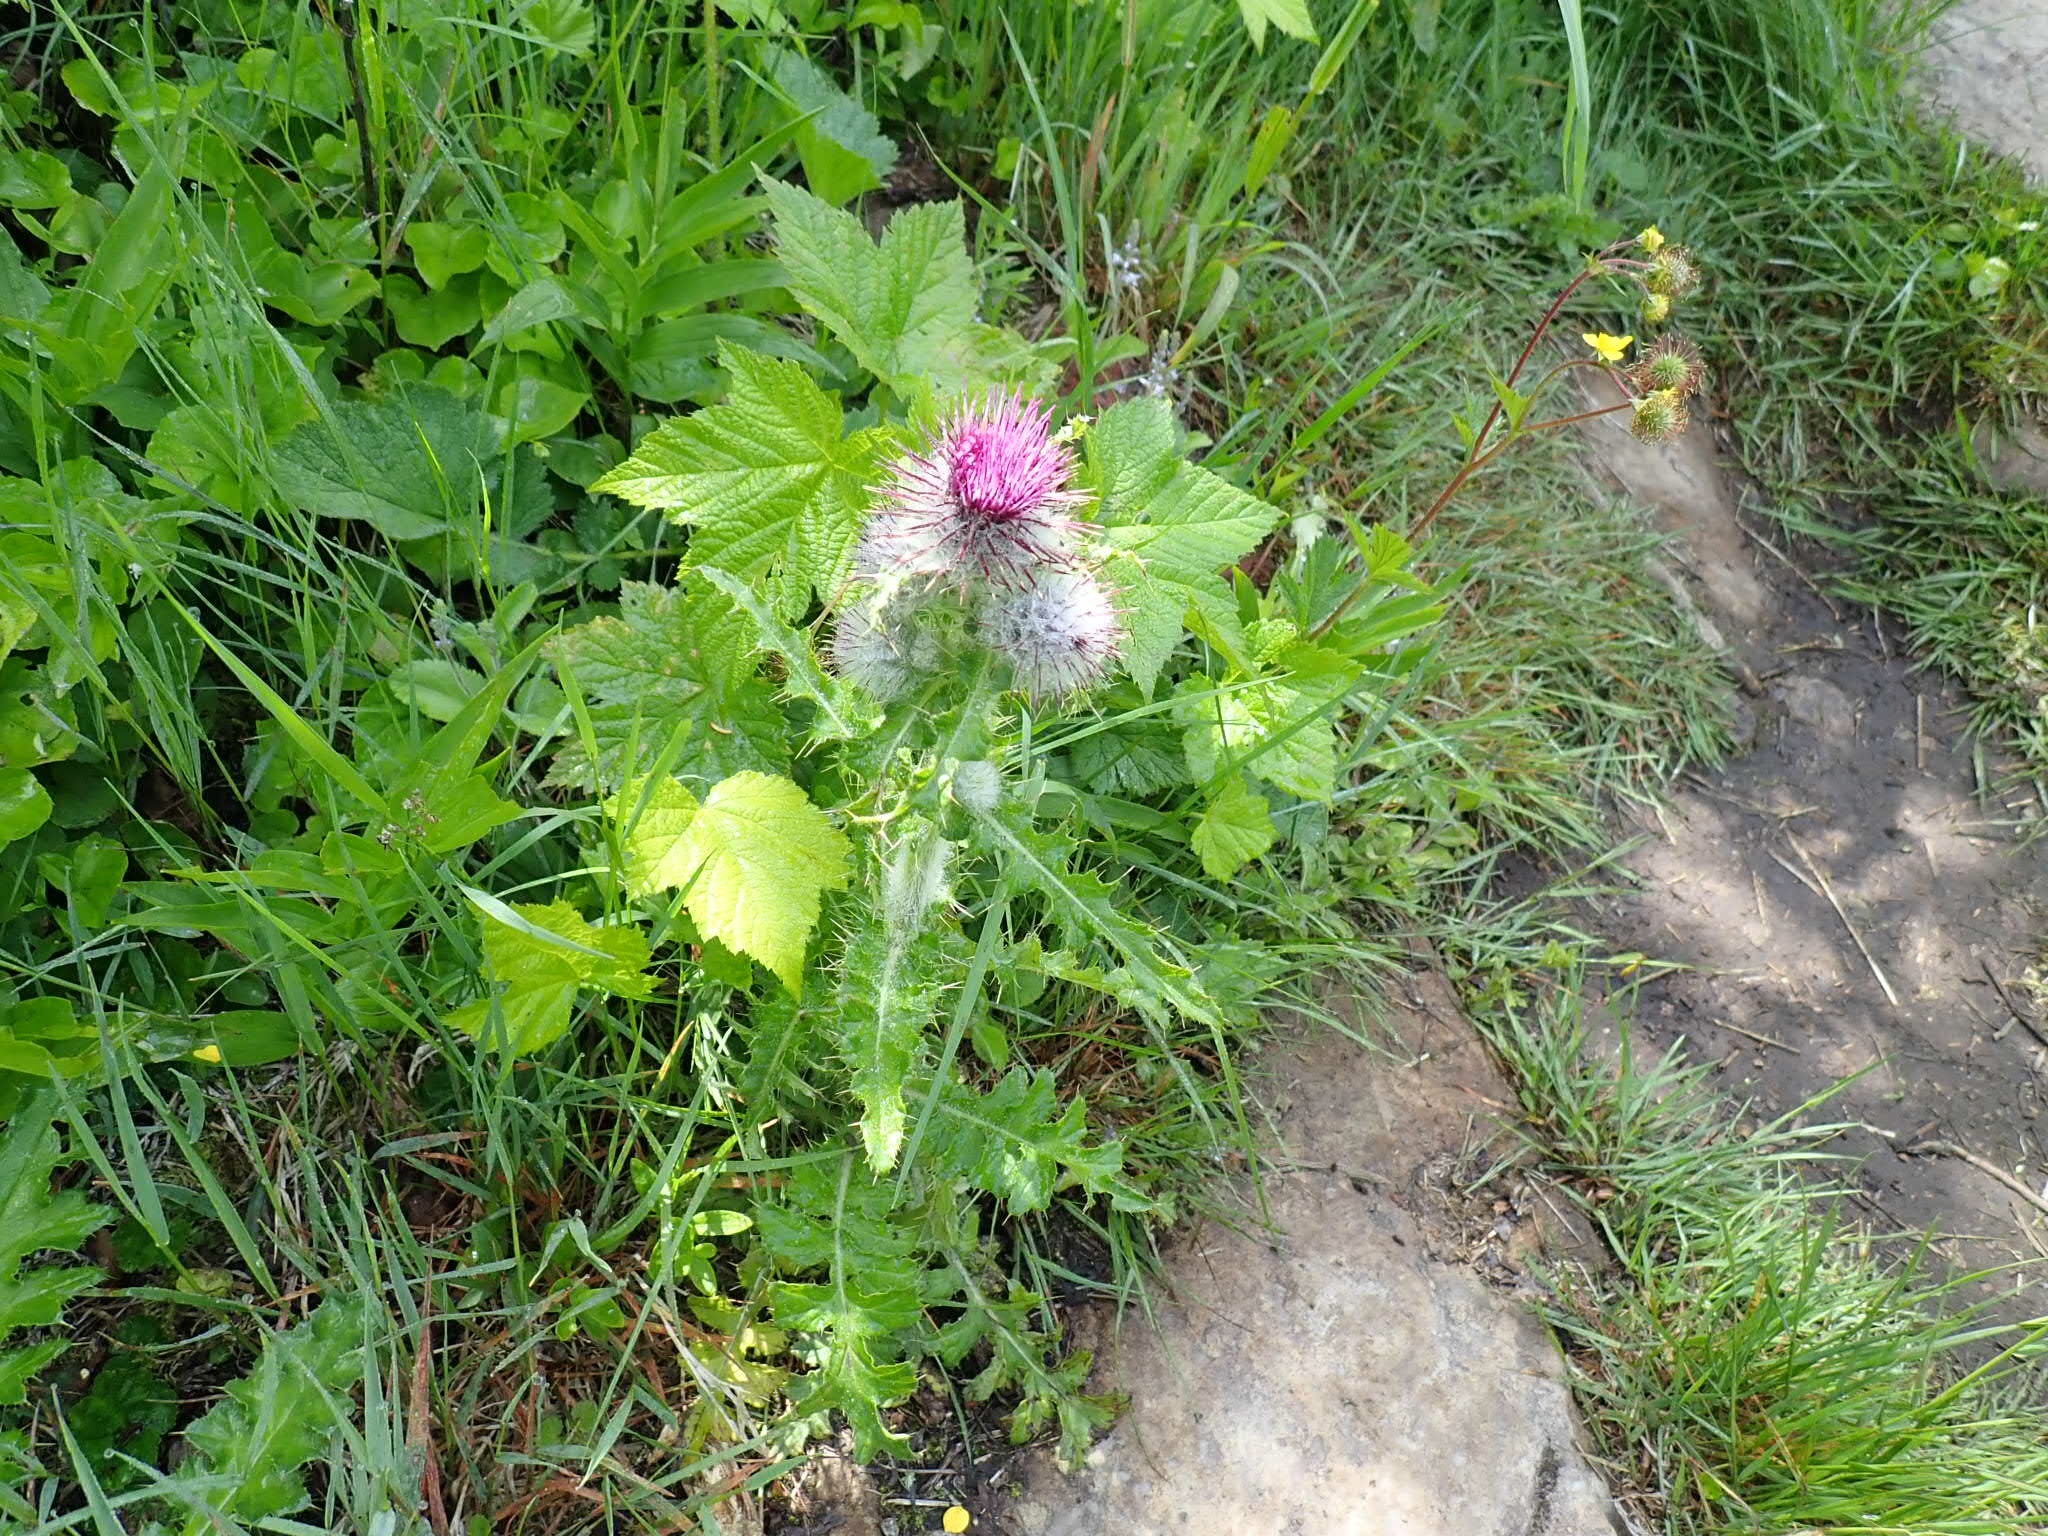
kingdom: Plantae
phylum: Tracheophyta
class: Magnoliopsida
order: Asterales
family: Asteraceae
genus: Cirsium
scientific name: Cirsium edule
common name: Indian thistle
